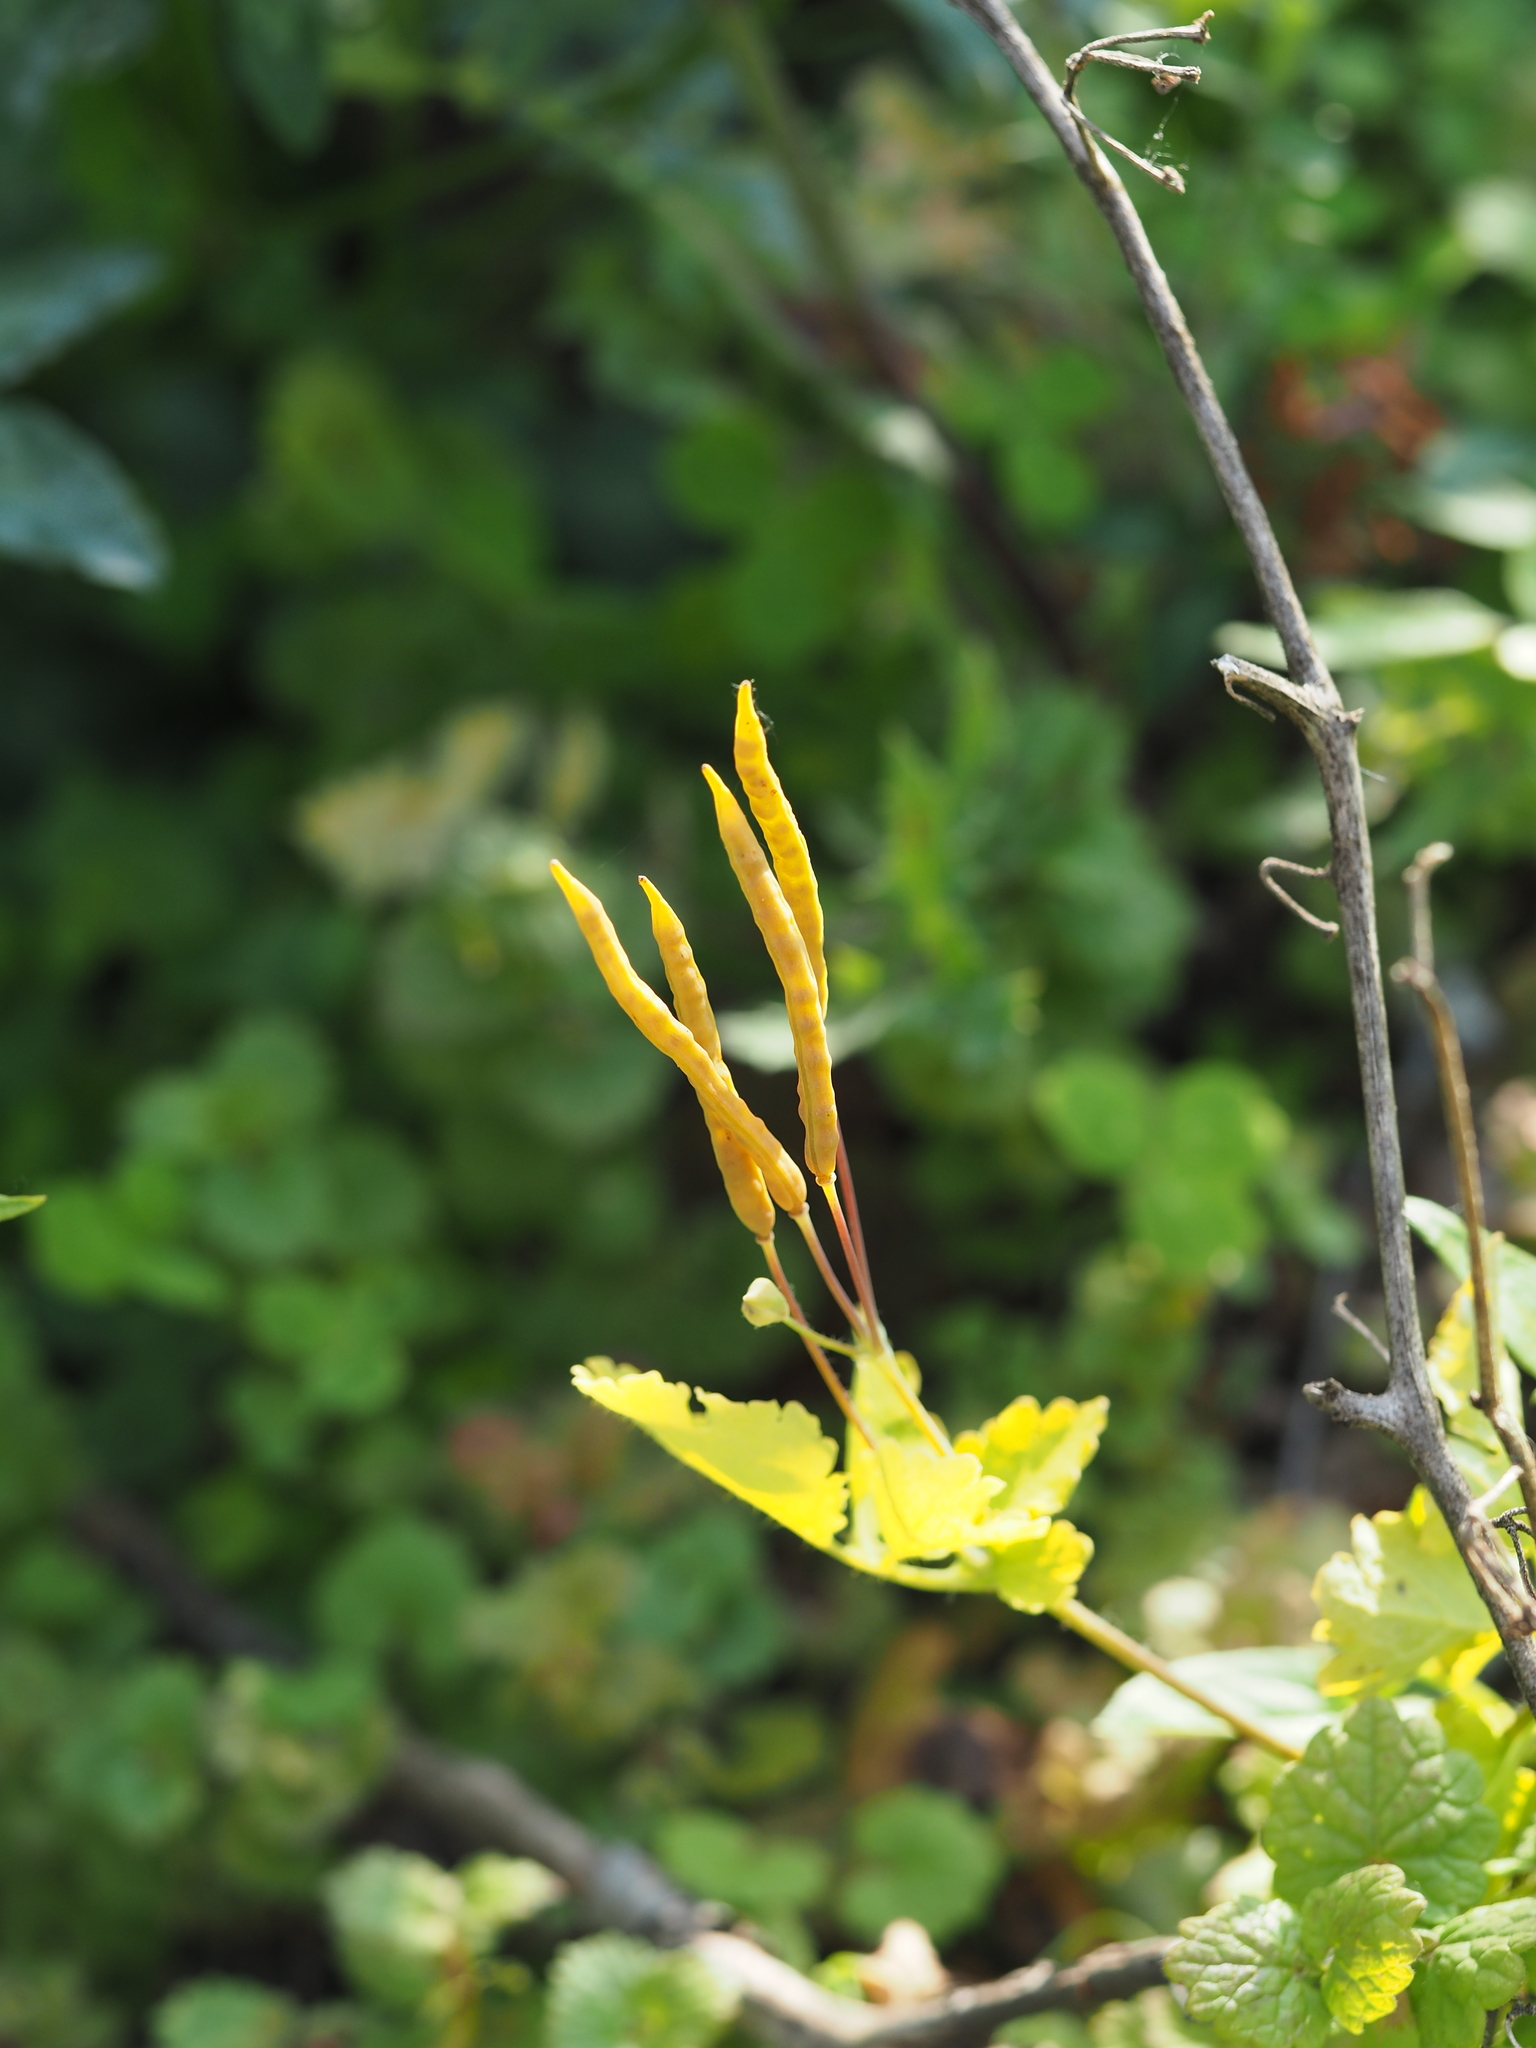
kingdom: Plantae
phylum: Tracheophyta
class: Magnoliopsida
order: Ranunculales
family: Papaveraceae
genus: Chelidonium
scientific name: Chelidonium majus
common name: Greater celandine
